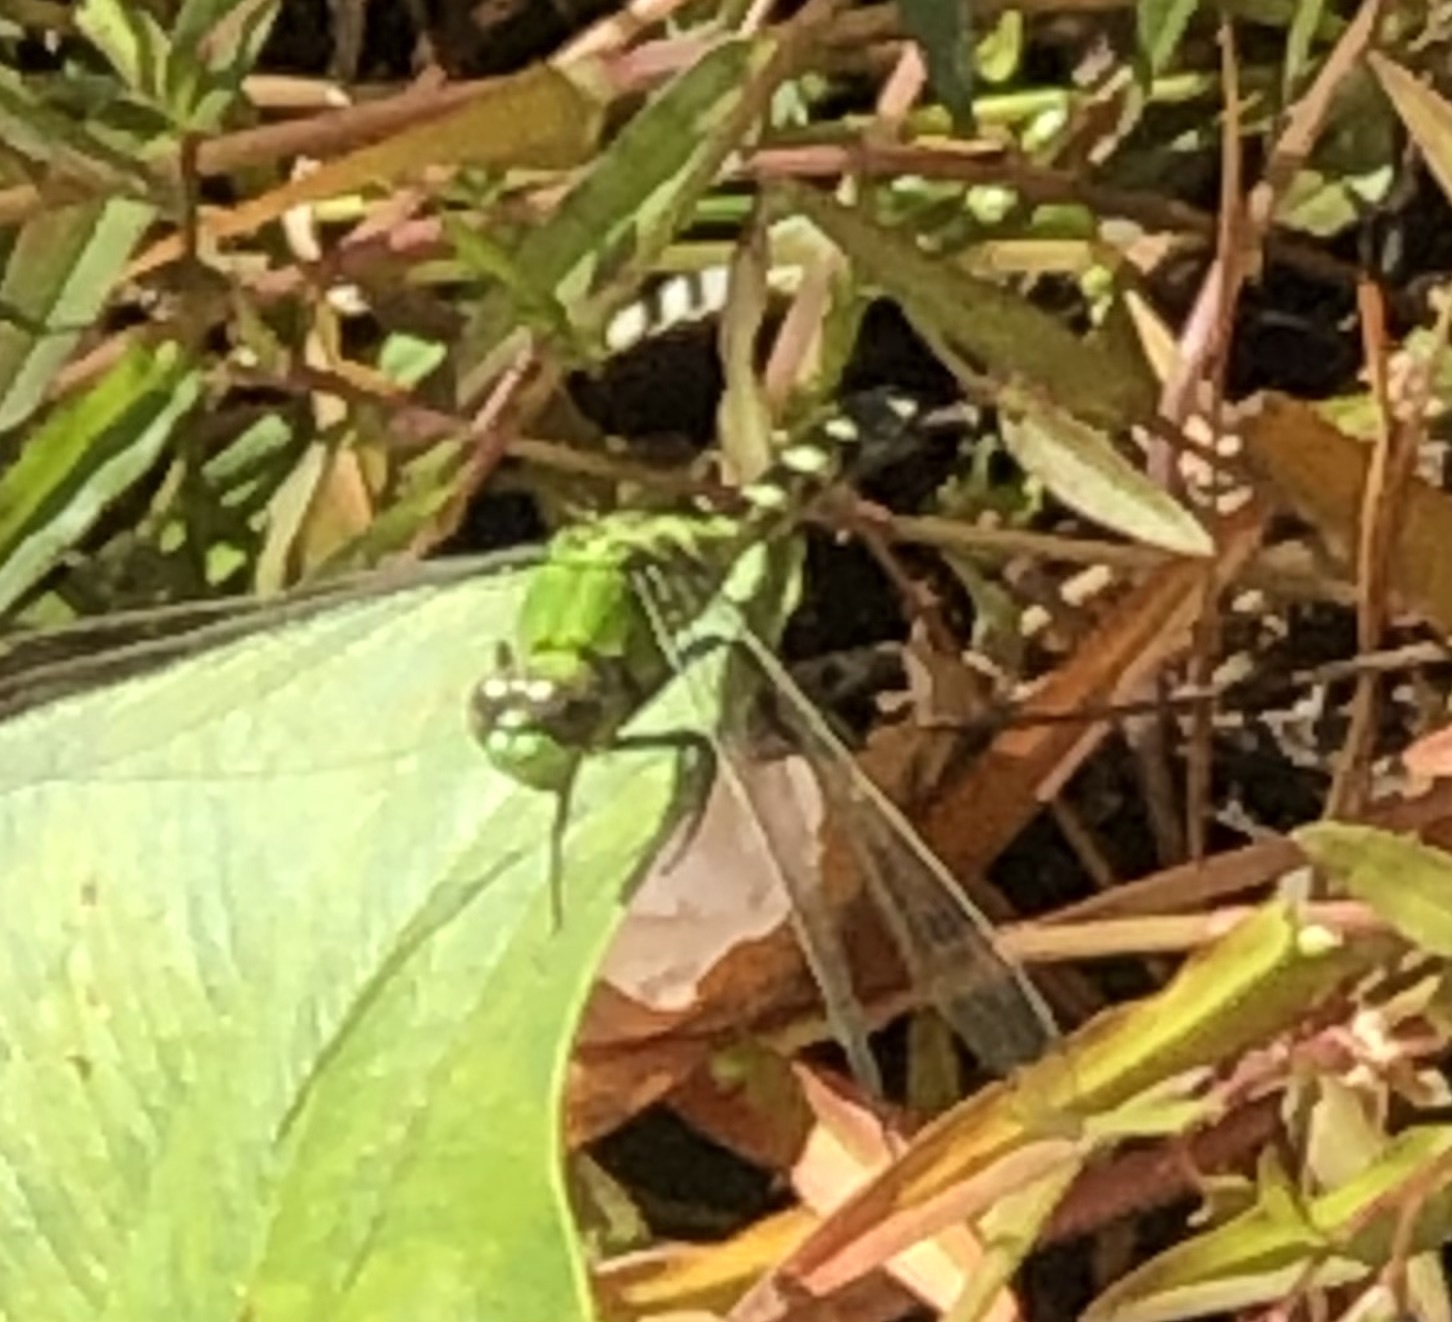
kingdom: Animalia
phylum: Arthropoda
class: Insecta
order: Odonata
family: Libellulidae
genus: Erythemis
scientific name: Erythemis simplicicollis
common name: Eastern pondhawk
